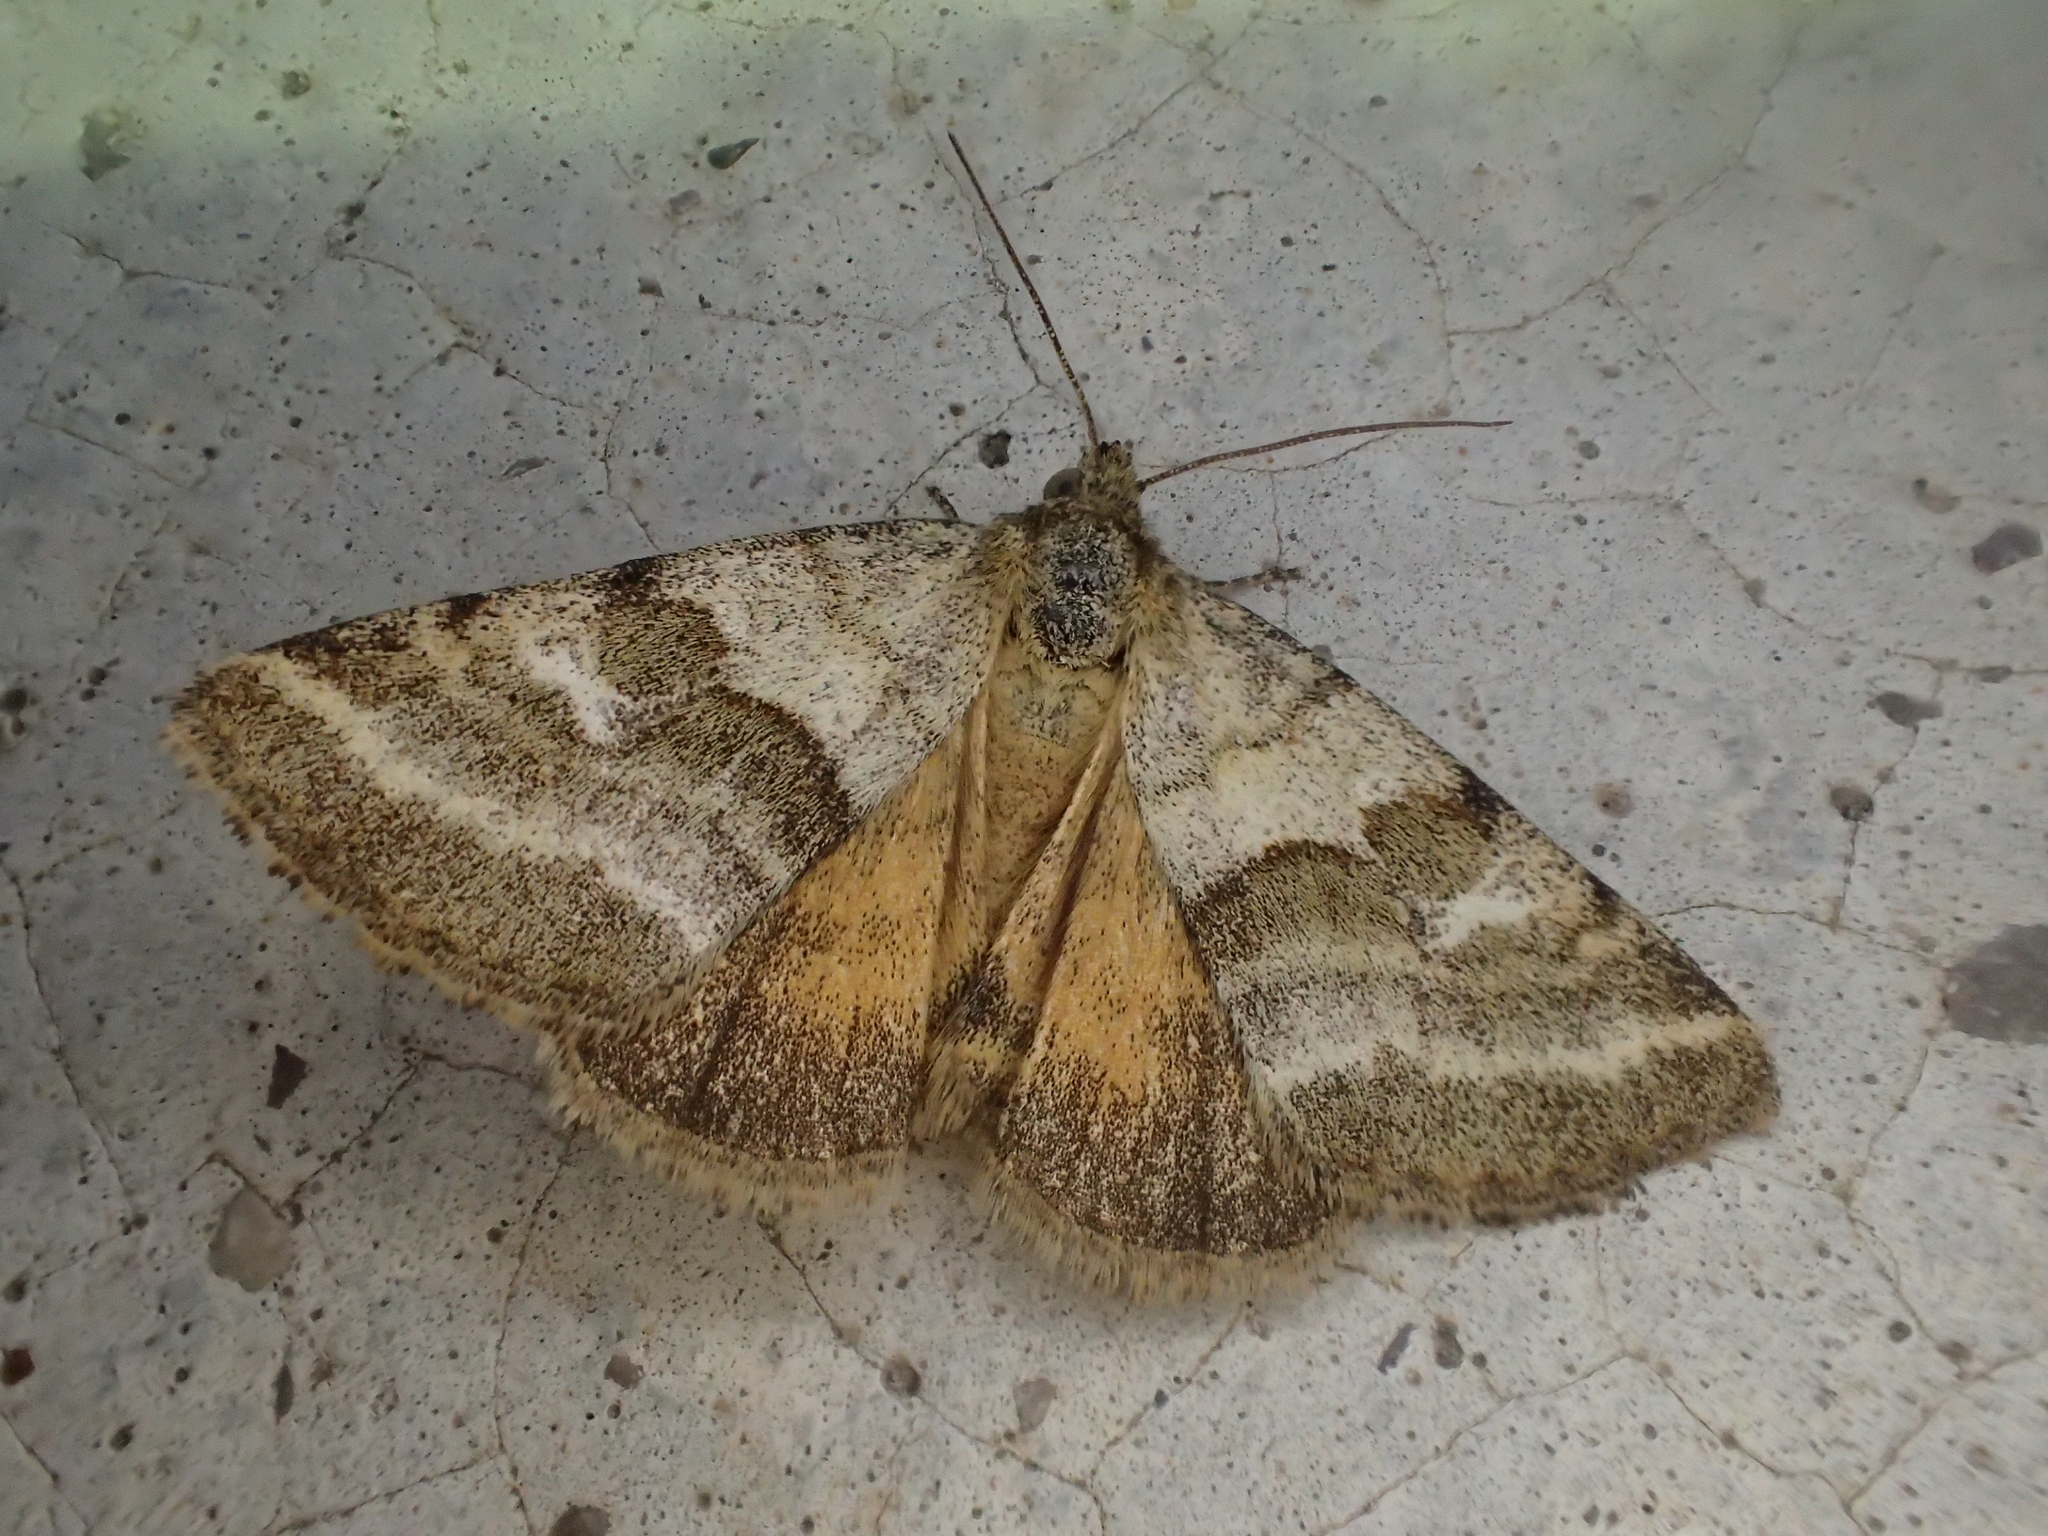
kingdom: Animalia
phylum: Arthropoda
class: Insecta
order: Lepidoptera
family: Noctuidae
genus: Synthymia
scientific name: Synthymia fixa
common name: Goldwing
